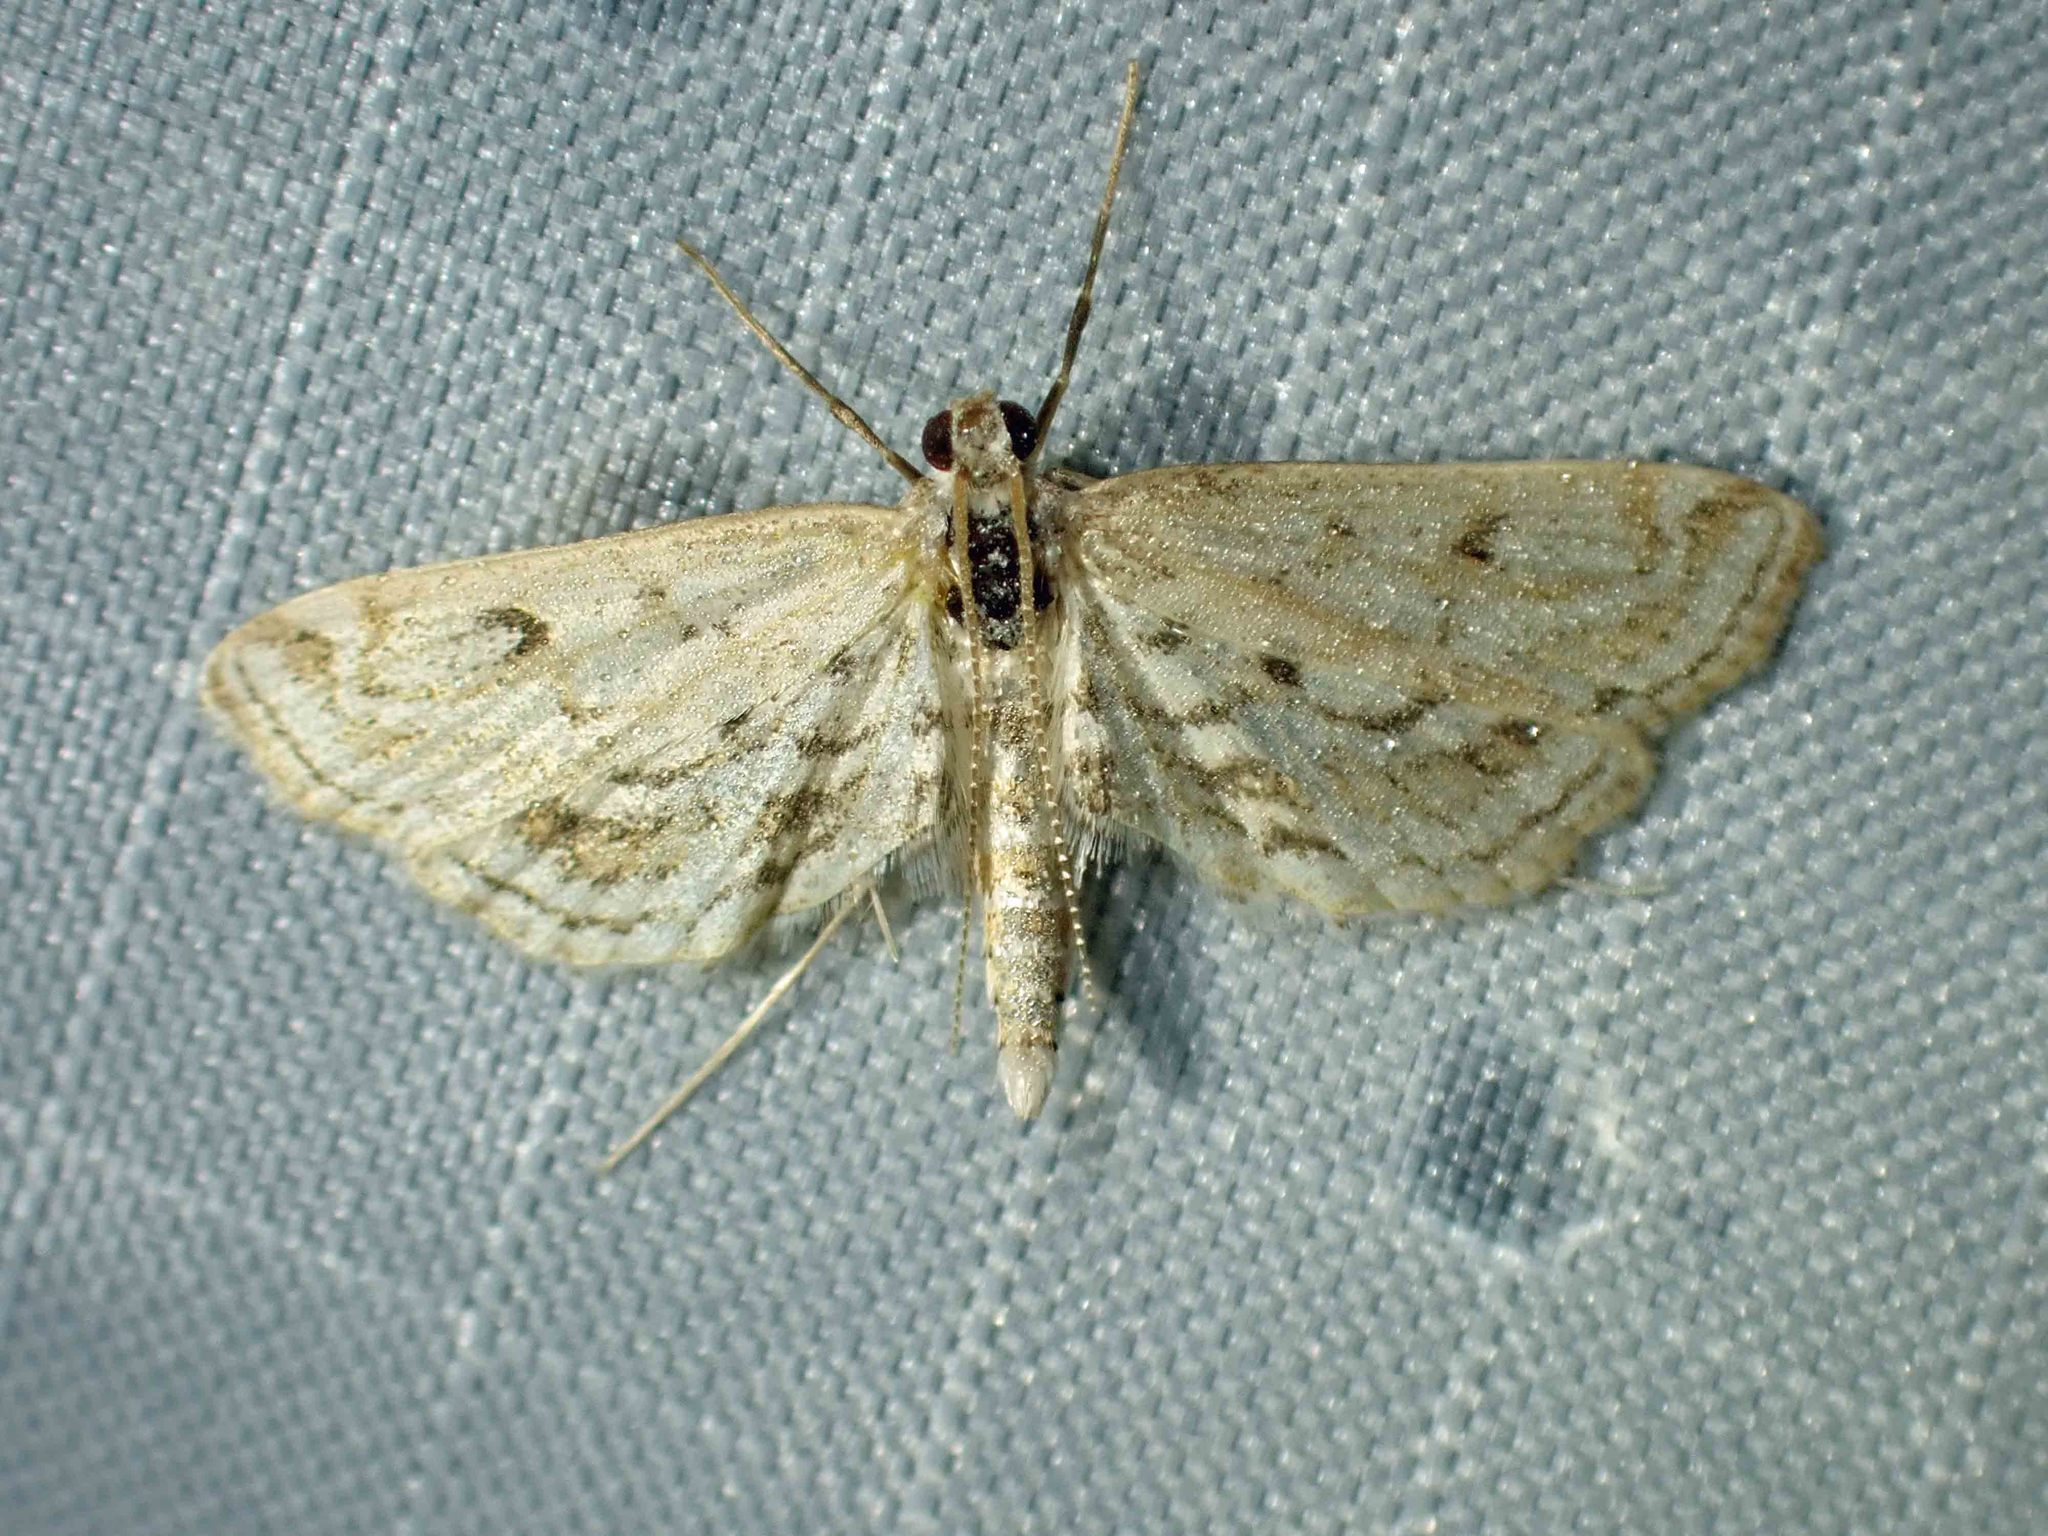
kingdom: Animalia
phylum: Arthropoda
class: Insecta
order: Lepidoptera
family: Crambidae
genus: Parapoynx
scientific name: Parapoynx allionealis
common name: Bladderwort casemaker
